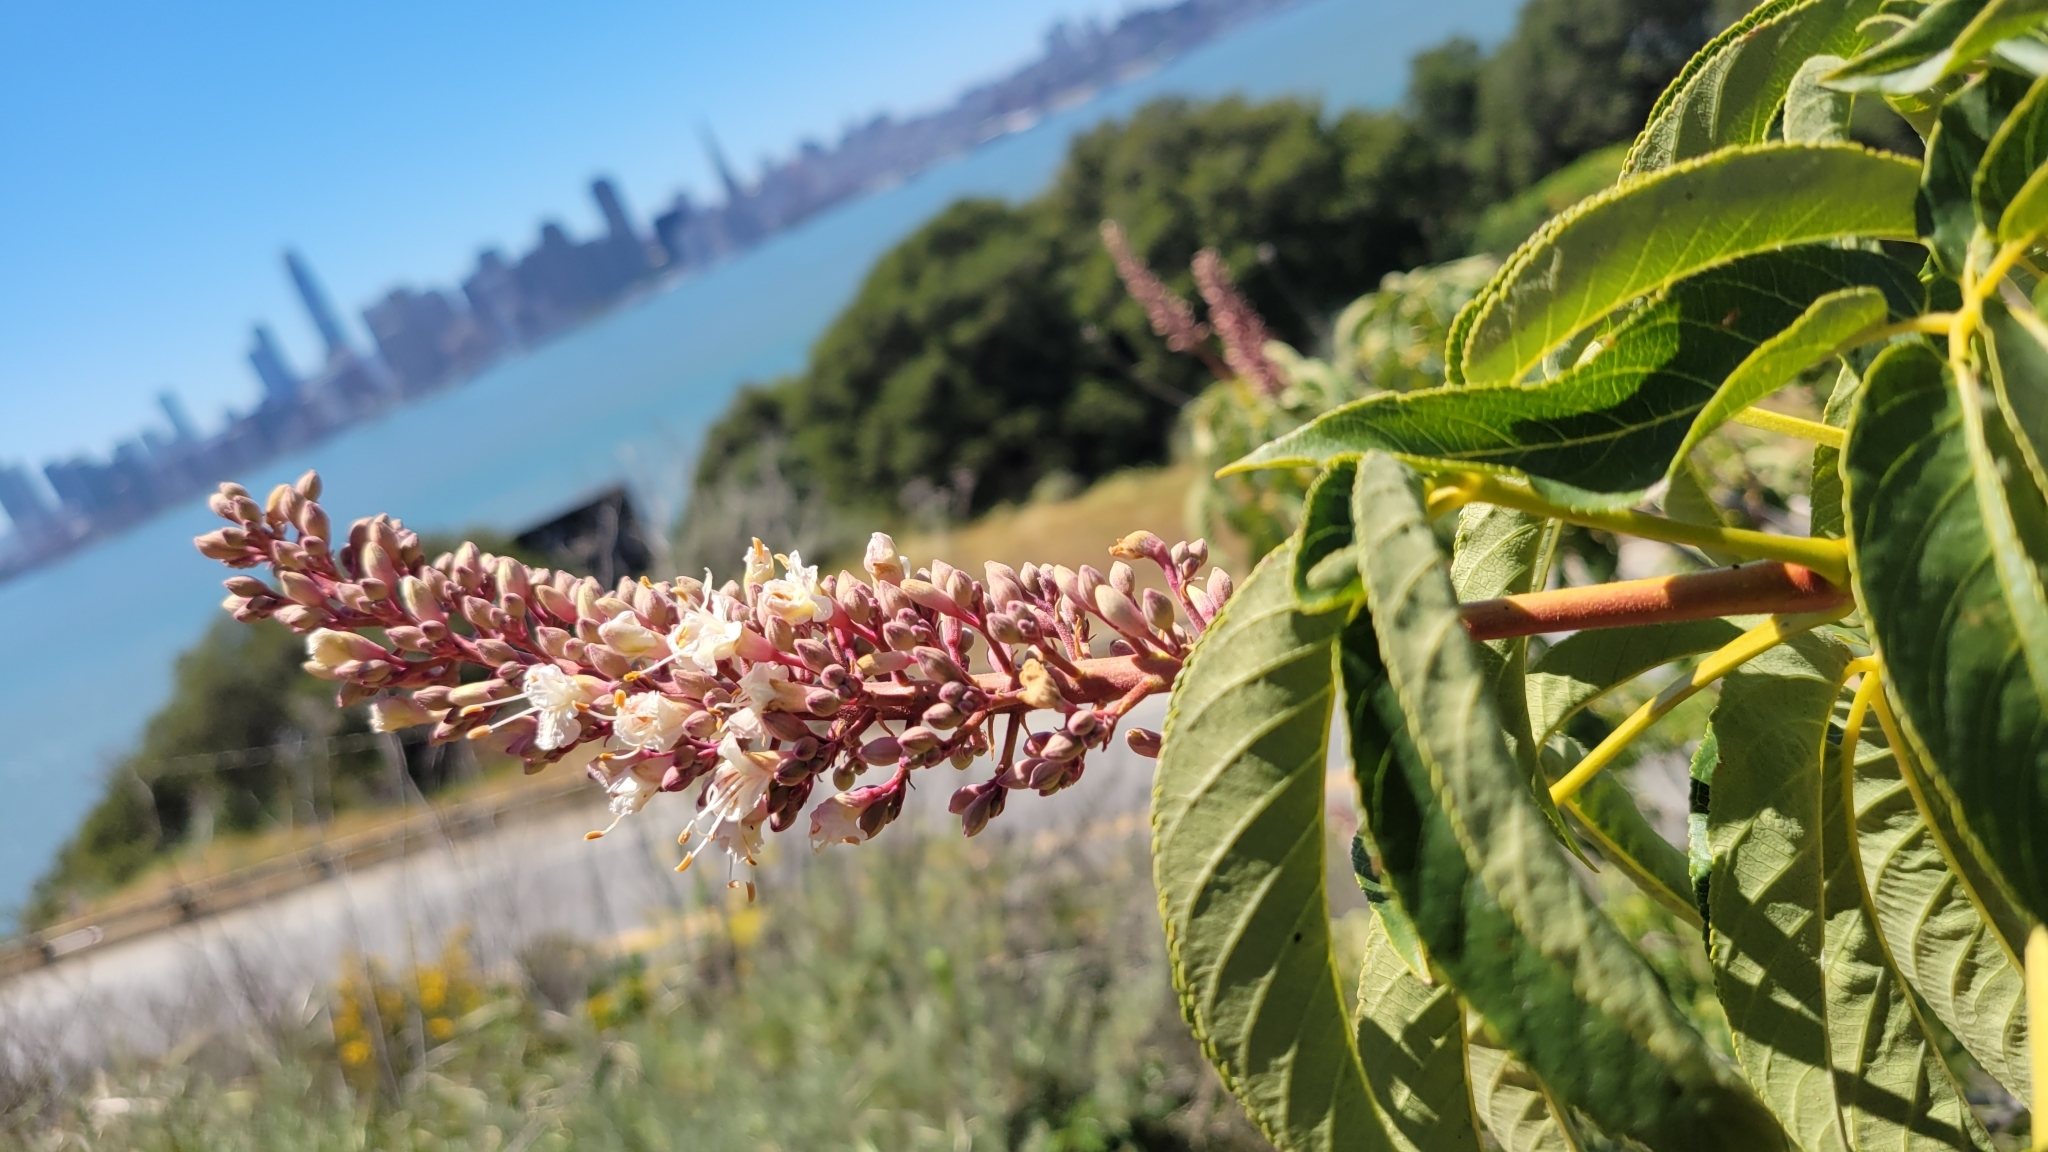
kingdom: Plantae
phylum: Tracheophyta
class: Magnoliopsida
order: Sapindales
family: Sapindaceae
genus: Aesculus
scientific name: Aesculus californica
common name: California buckeye
